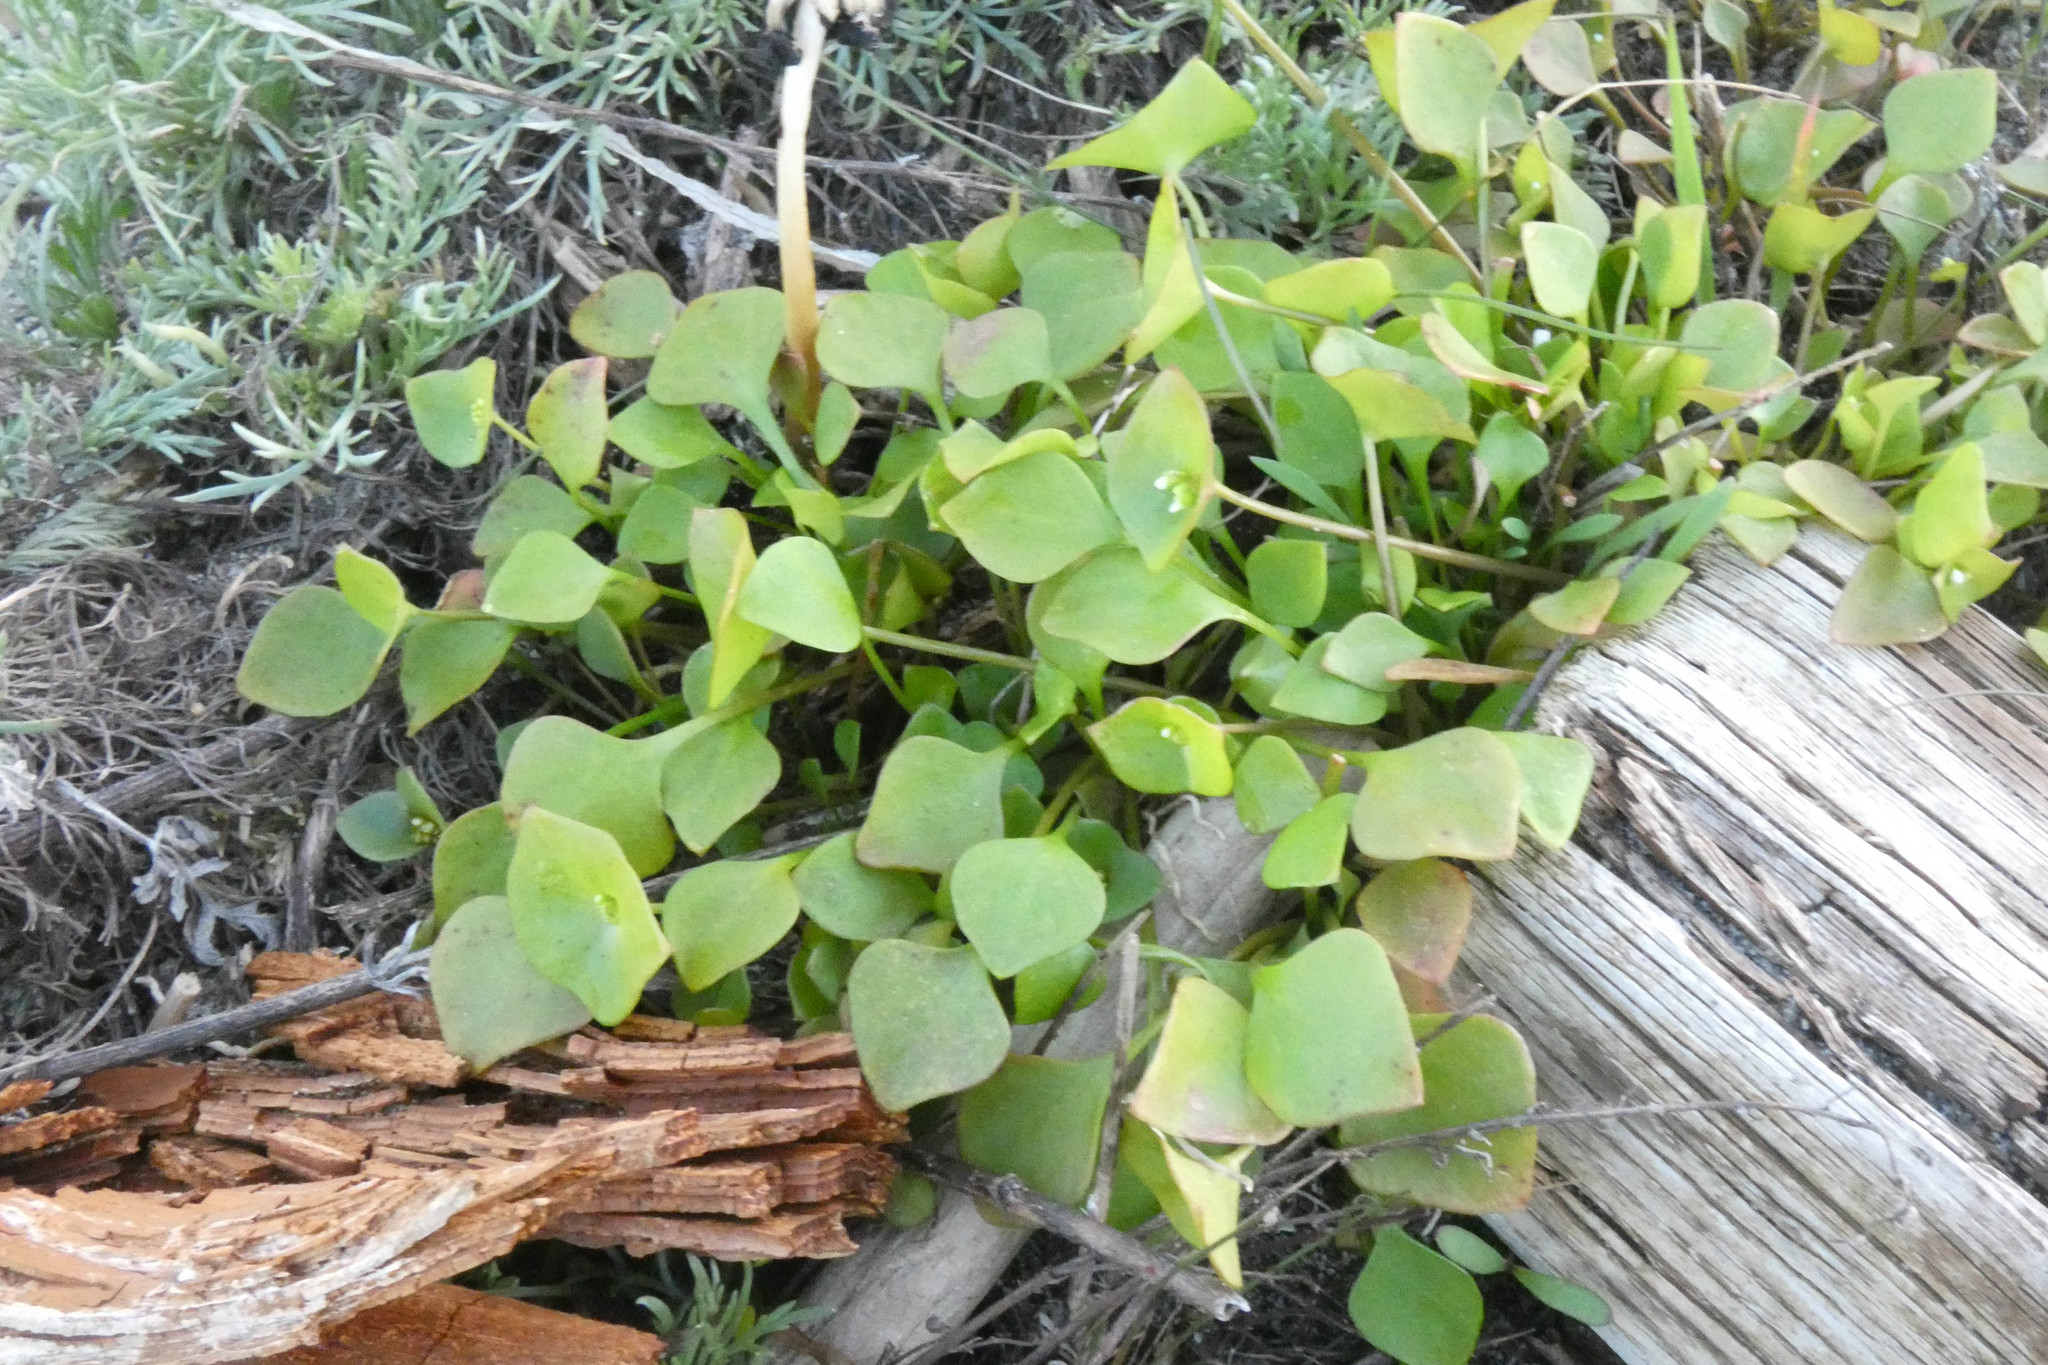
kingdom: Plantae
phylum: Tracheophyta
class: Magnoliopsida
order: Caryophyllales
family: Montiaceae
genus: Claytonia
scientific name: Claytonia perfoliata
